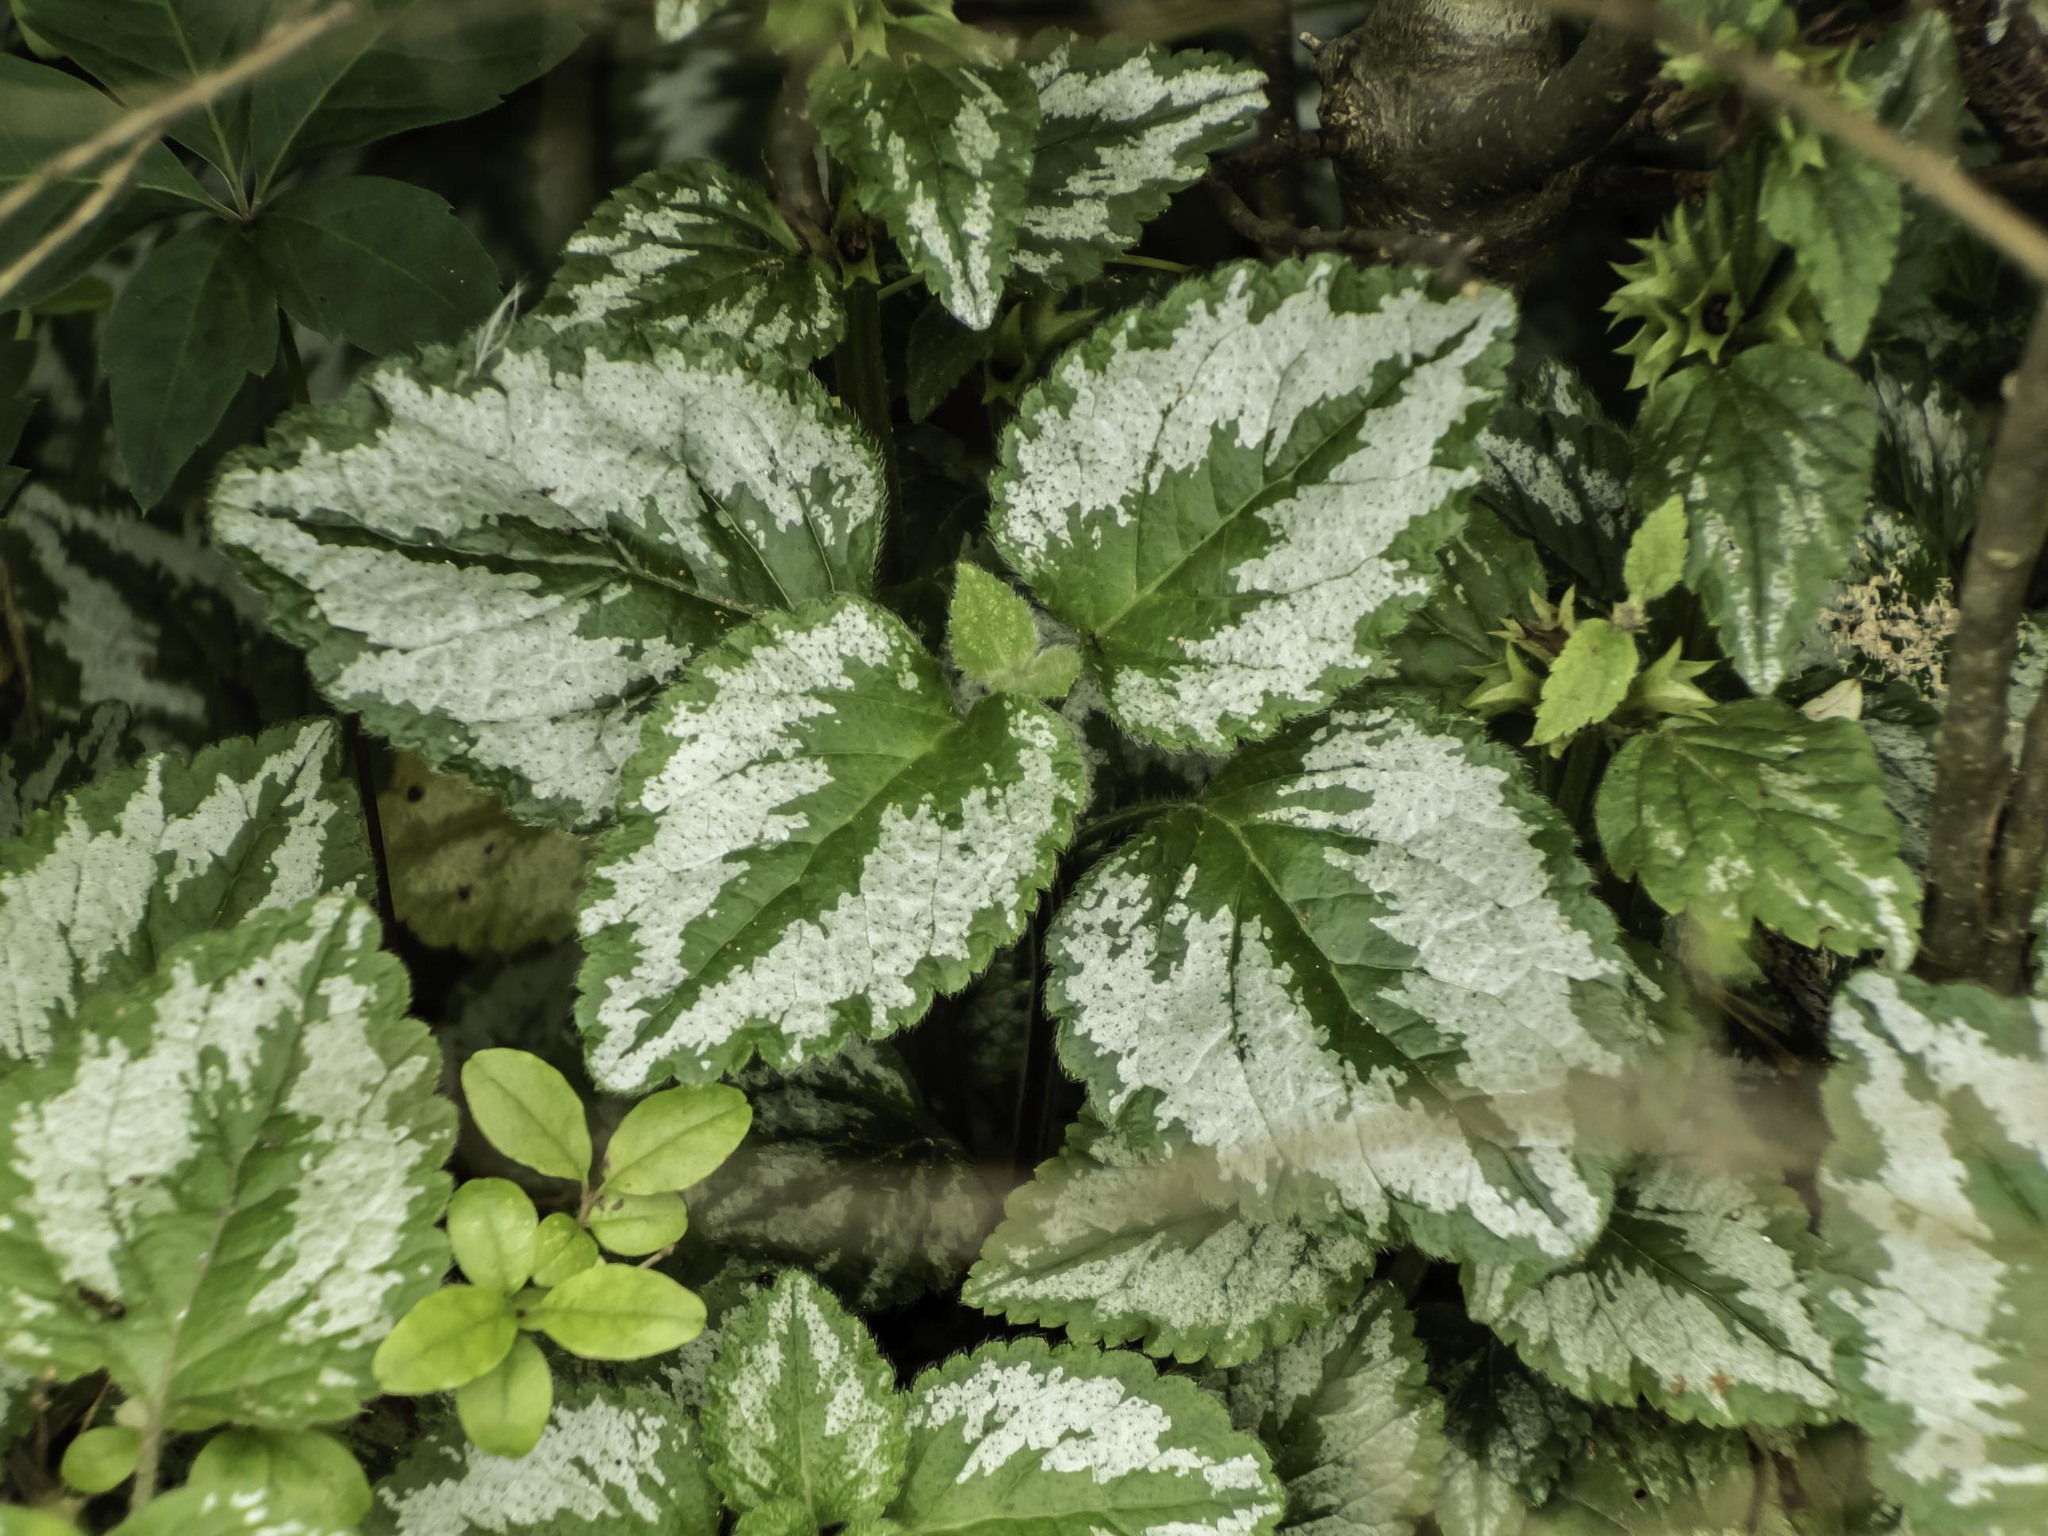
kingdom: Plantae
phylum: Tracheophyta
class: Magnoliopsida
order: Lamiales
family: Lamiaceae
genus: Lamium
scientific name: Lamium galeobdolon
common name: Yellow archangel
